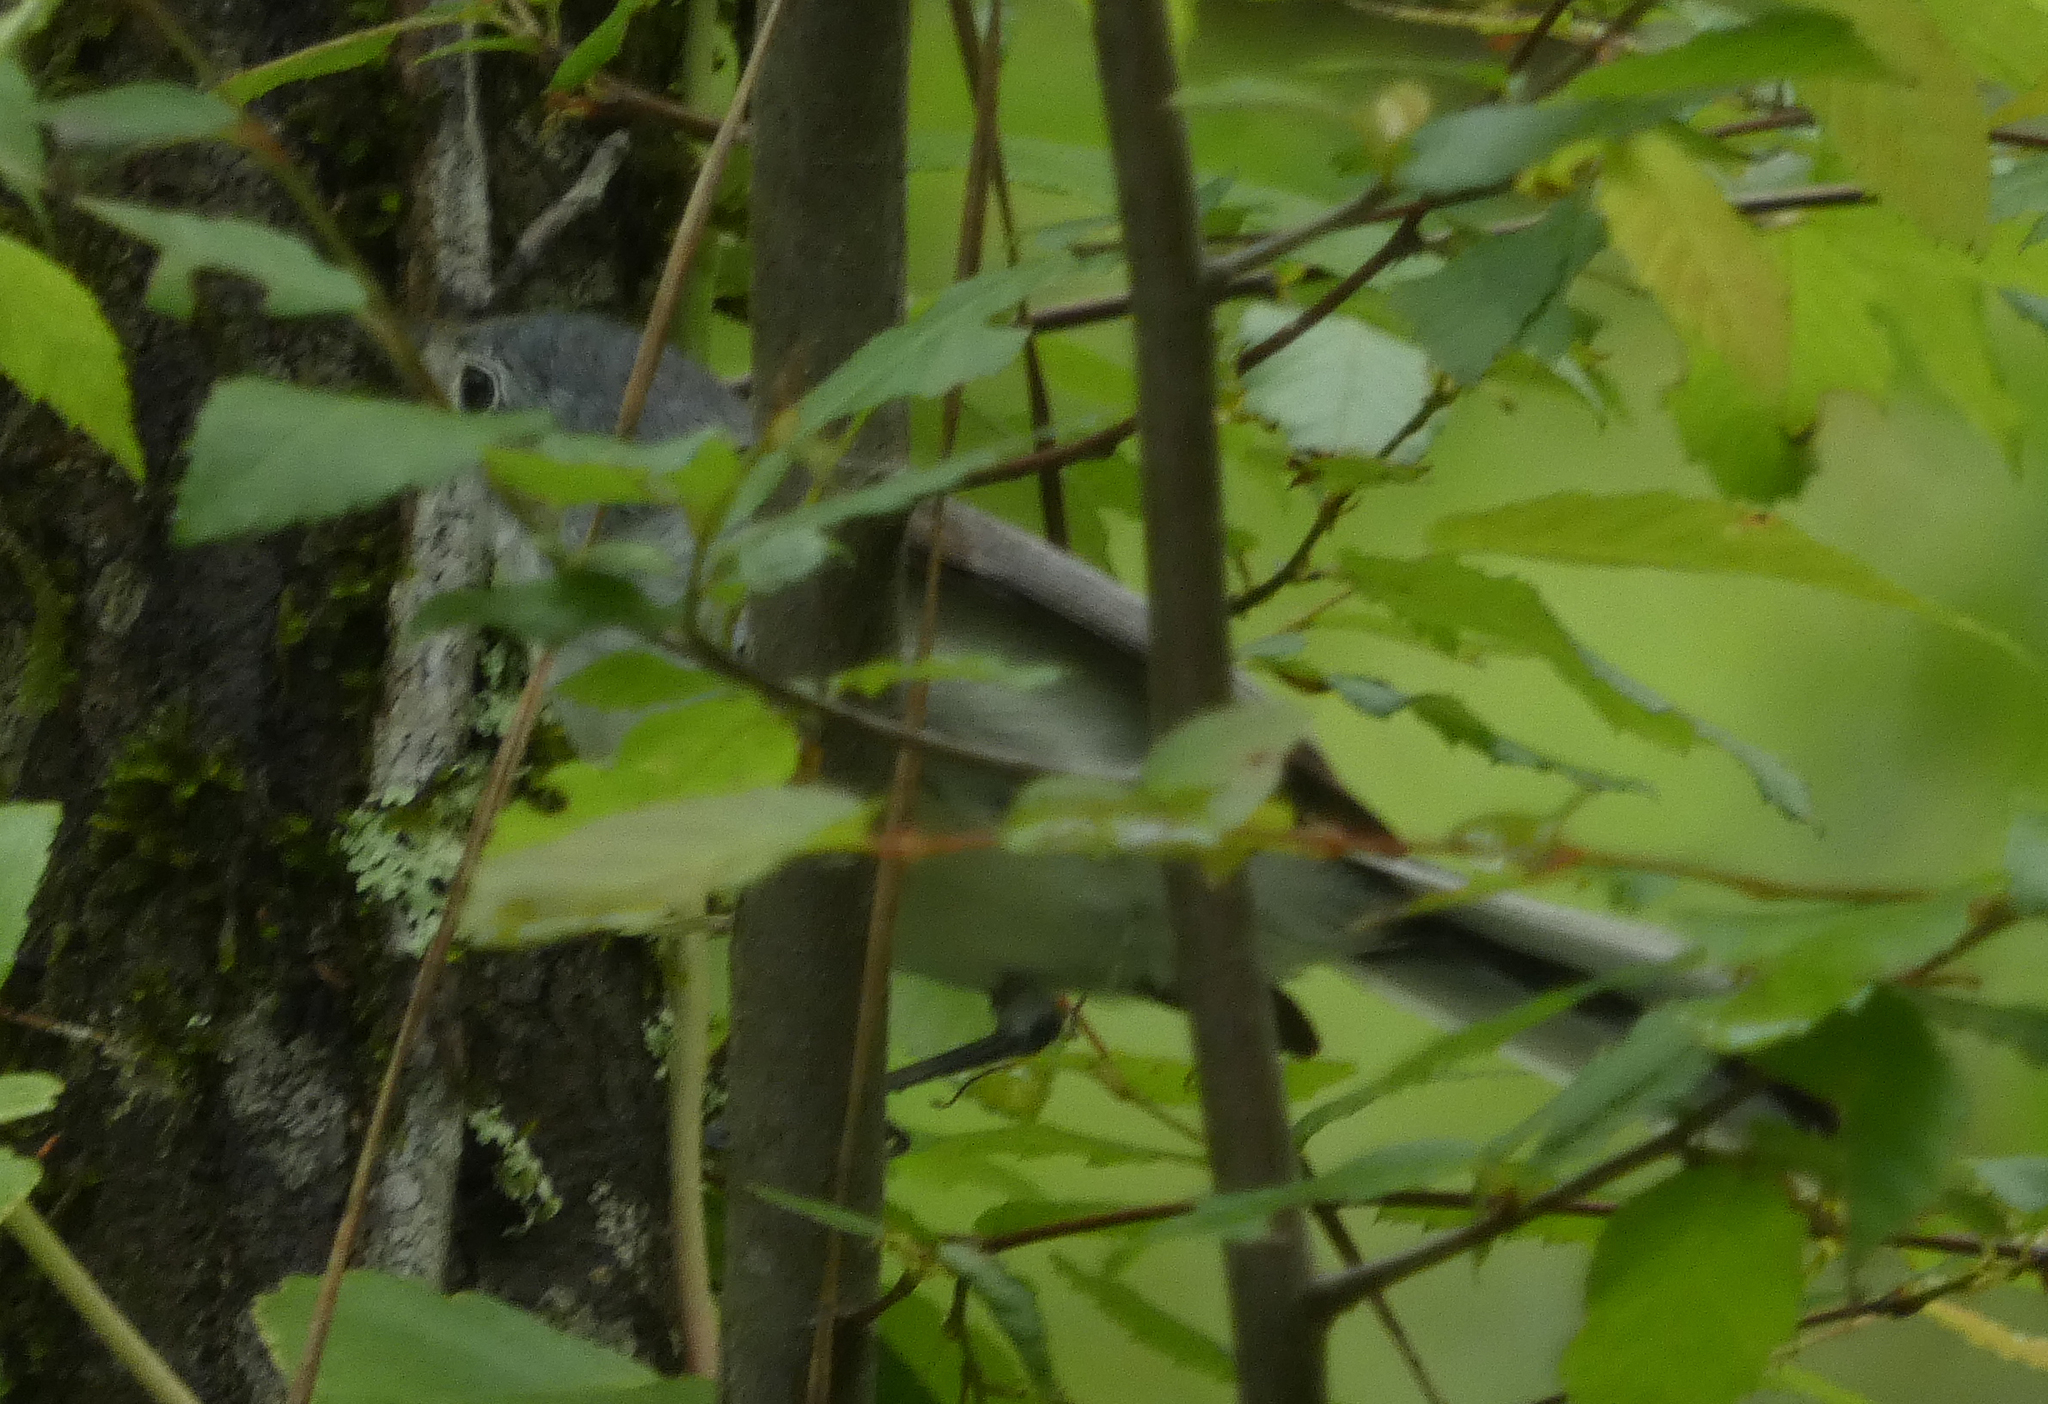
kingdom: Animalia
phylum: Chordata
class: Aves
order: Passeriformes
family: Polioptilidae
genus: Polioptila
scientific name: Polioptila caerulea
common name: Blue-gray gnatcatcher
